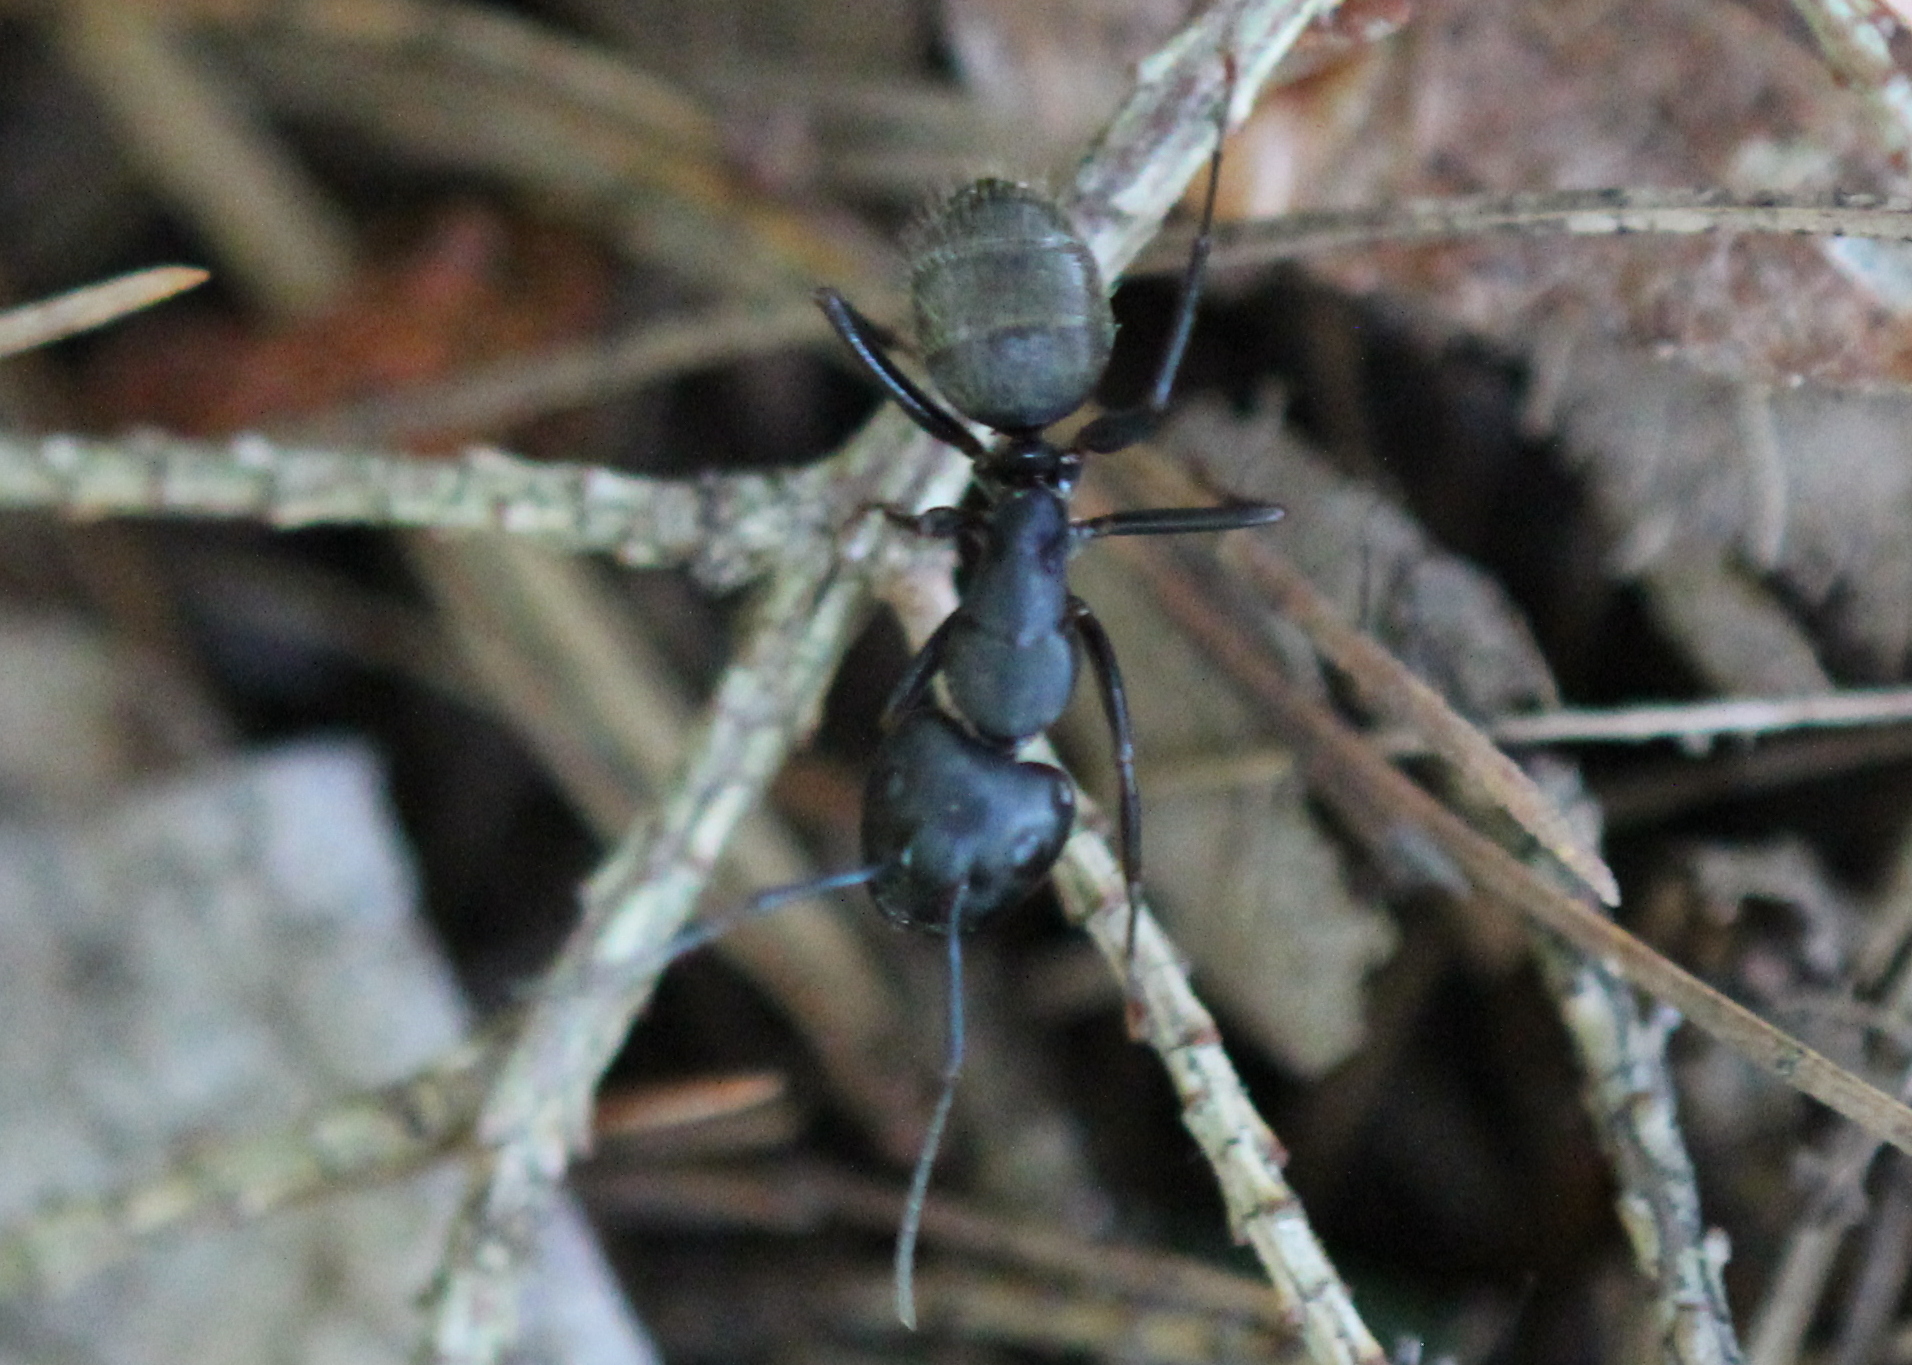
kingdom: Animalia
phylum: Arthropoda
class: Insecta
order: Hymenoptera
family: Formicidae
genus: Camponotus
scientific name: Camponotus pennsylvanicus
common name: Black carpenter ant
